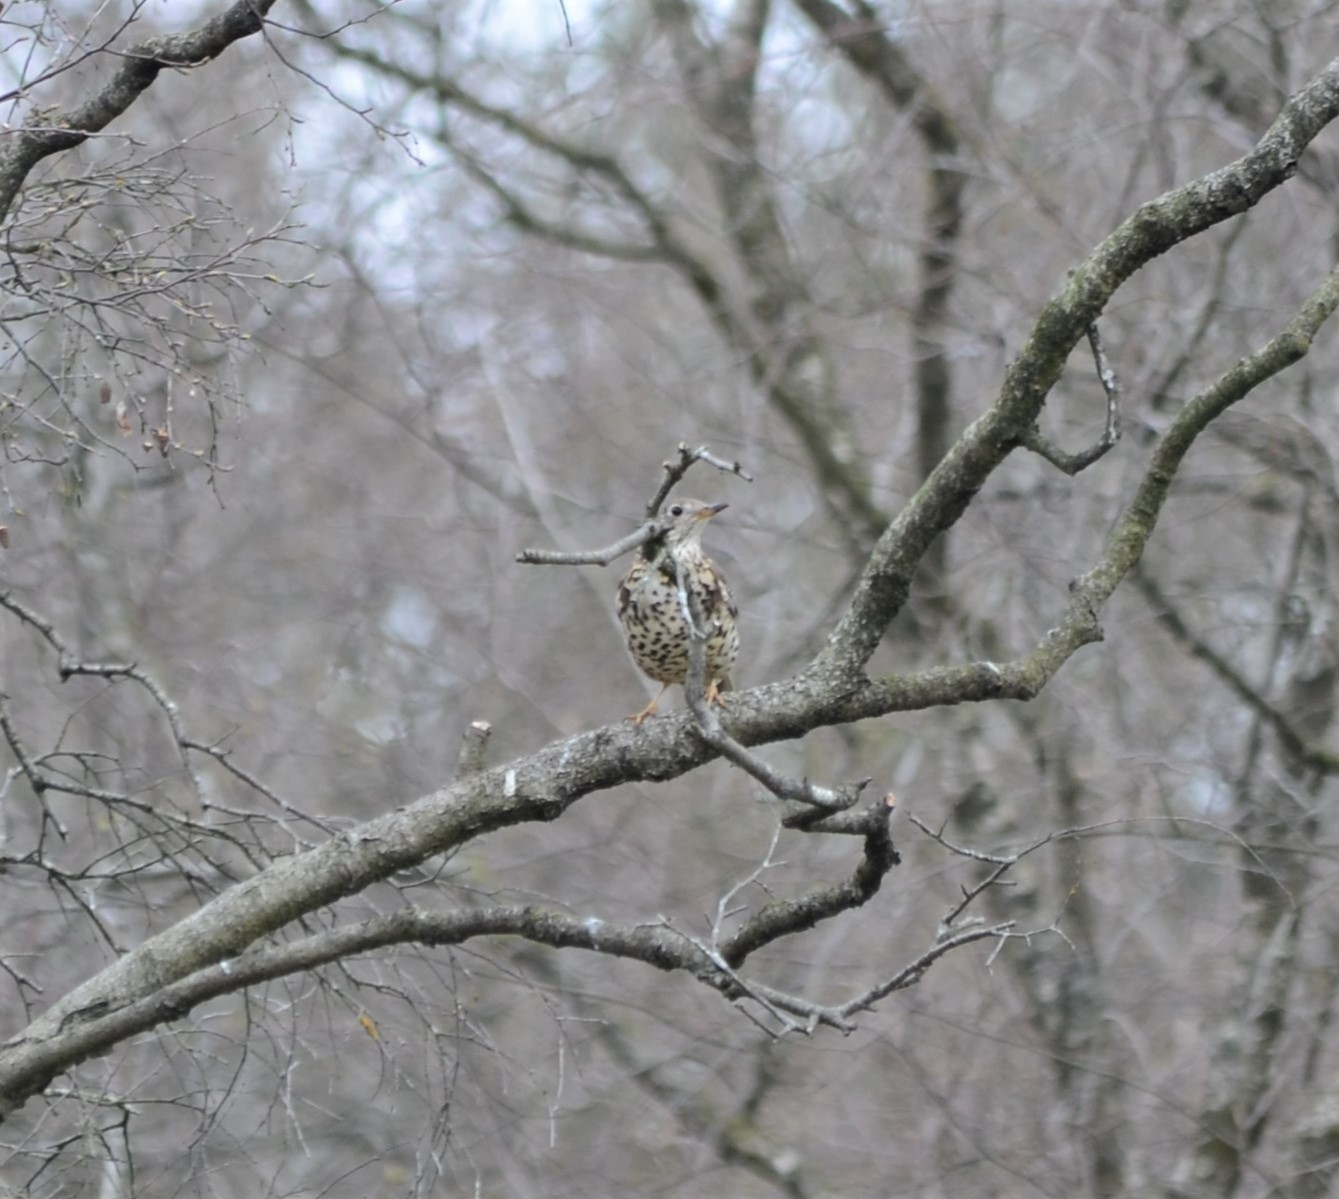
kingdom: Animalia
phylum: Chordata
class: Aves
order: Passeriformes
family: Turdidae
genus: Turdus
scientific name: Turdus viscivorus
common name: Mistle thrush
